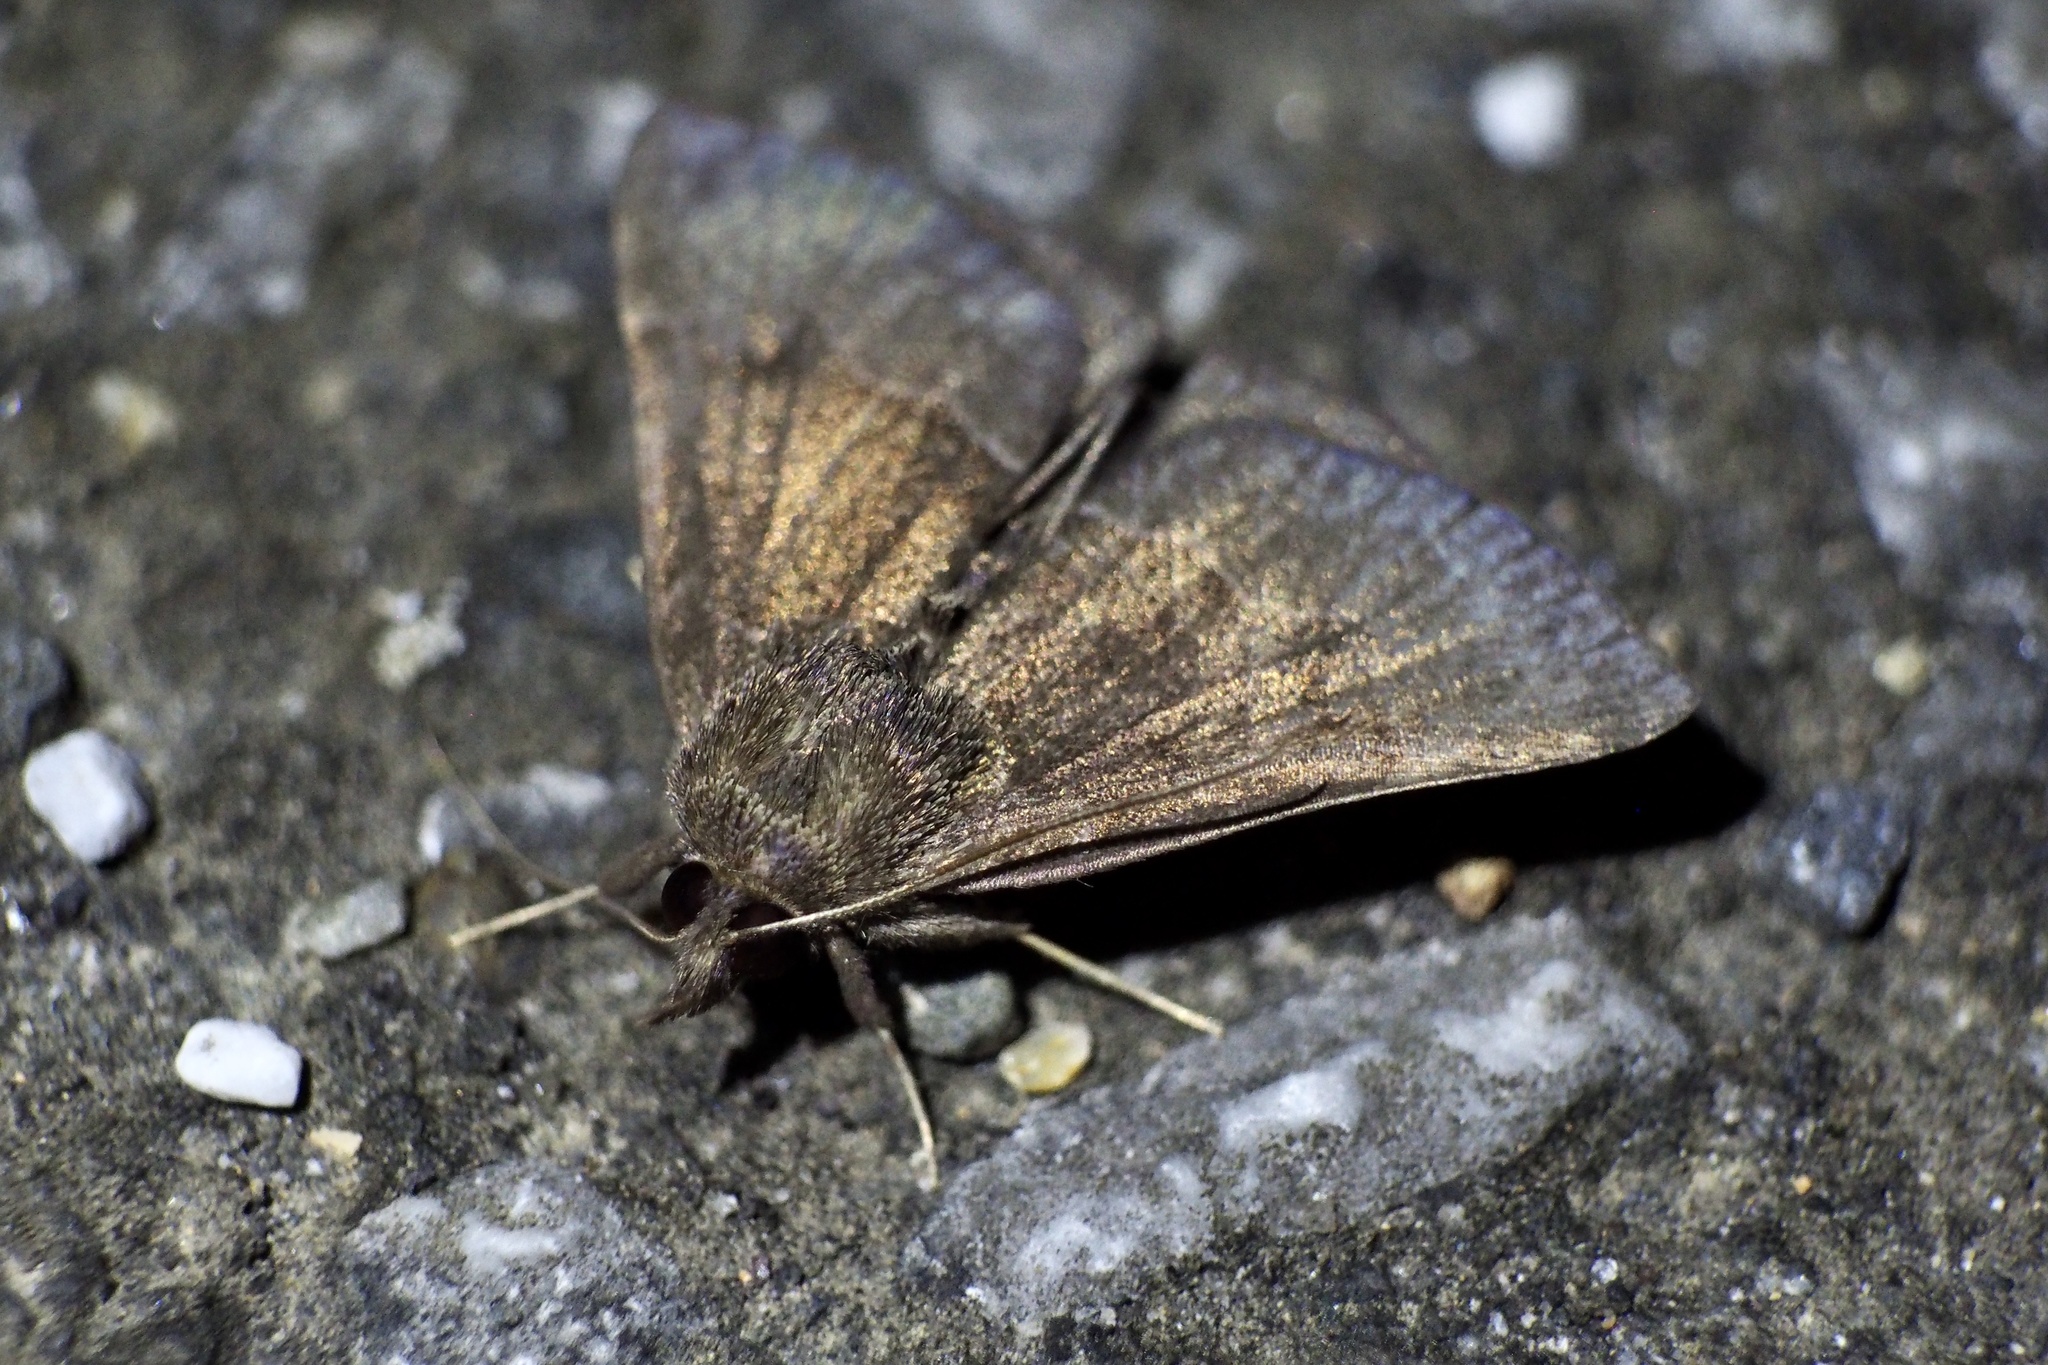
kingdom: Animalia
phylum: Arthropoda
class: Insecta
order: Lepidoptera
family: Erebidae
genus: Hypena
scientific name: Hypena stygiana
